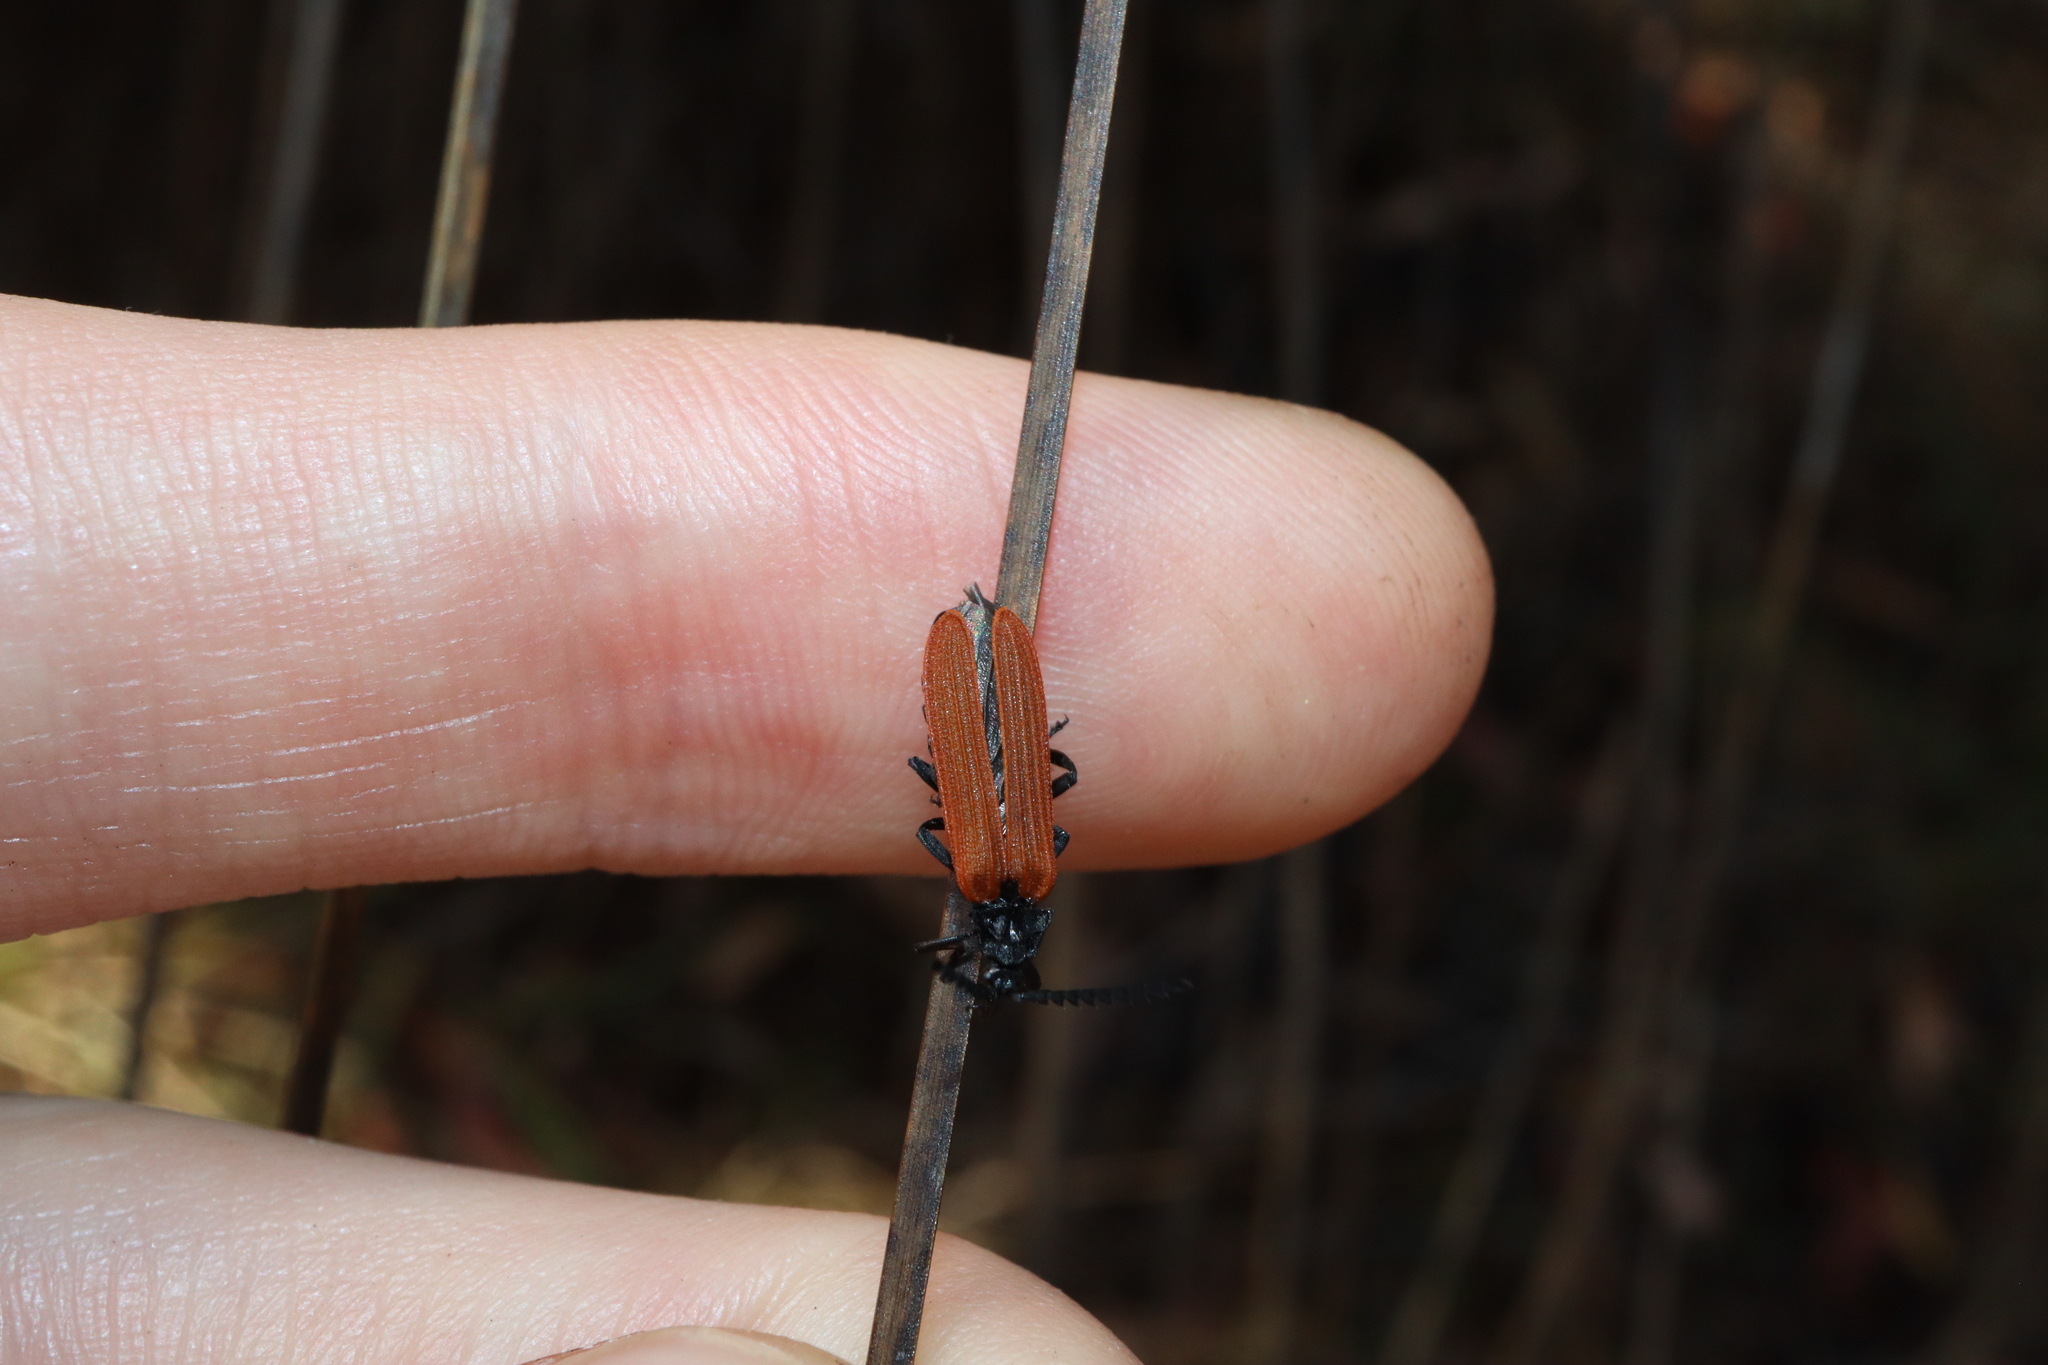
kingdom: Animalia
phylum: Arthropoda
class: Insecta
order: Coleoptera
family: Lycidae
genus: Porrostoma
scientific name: Porrostoma rhipidium
